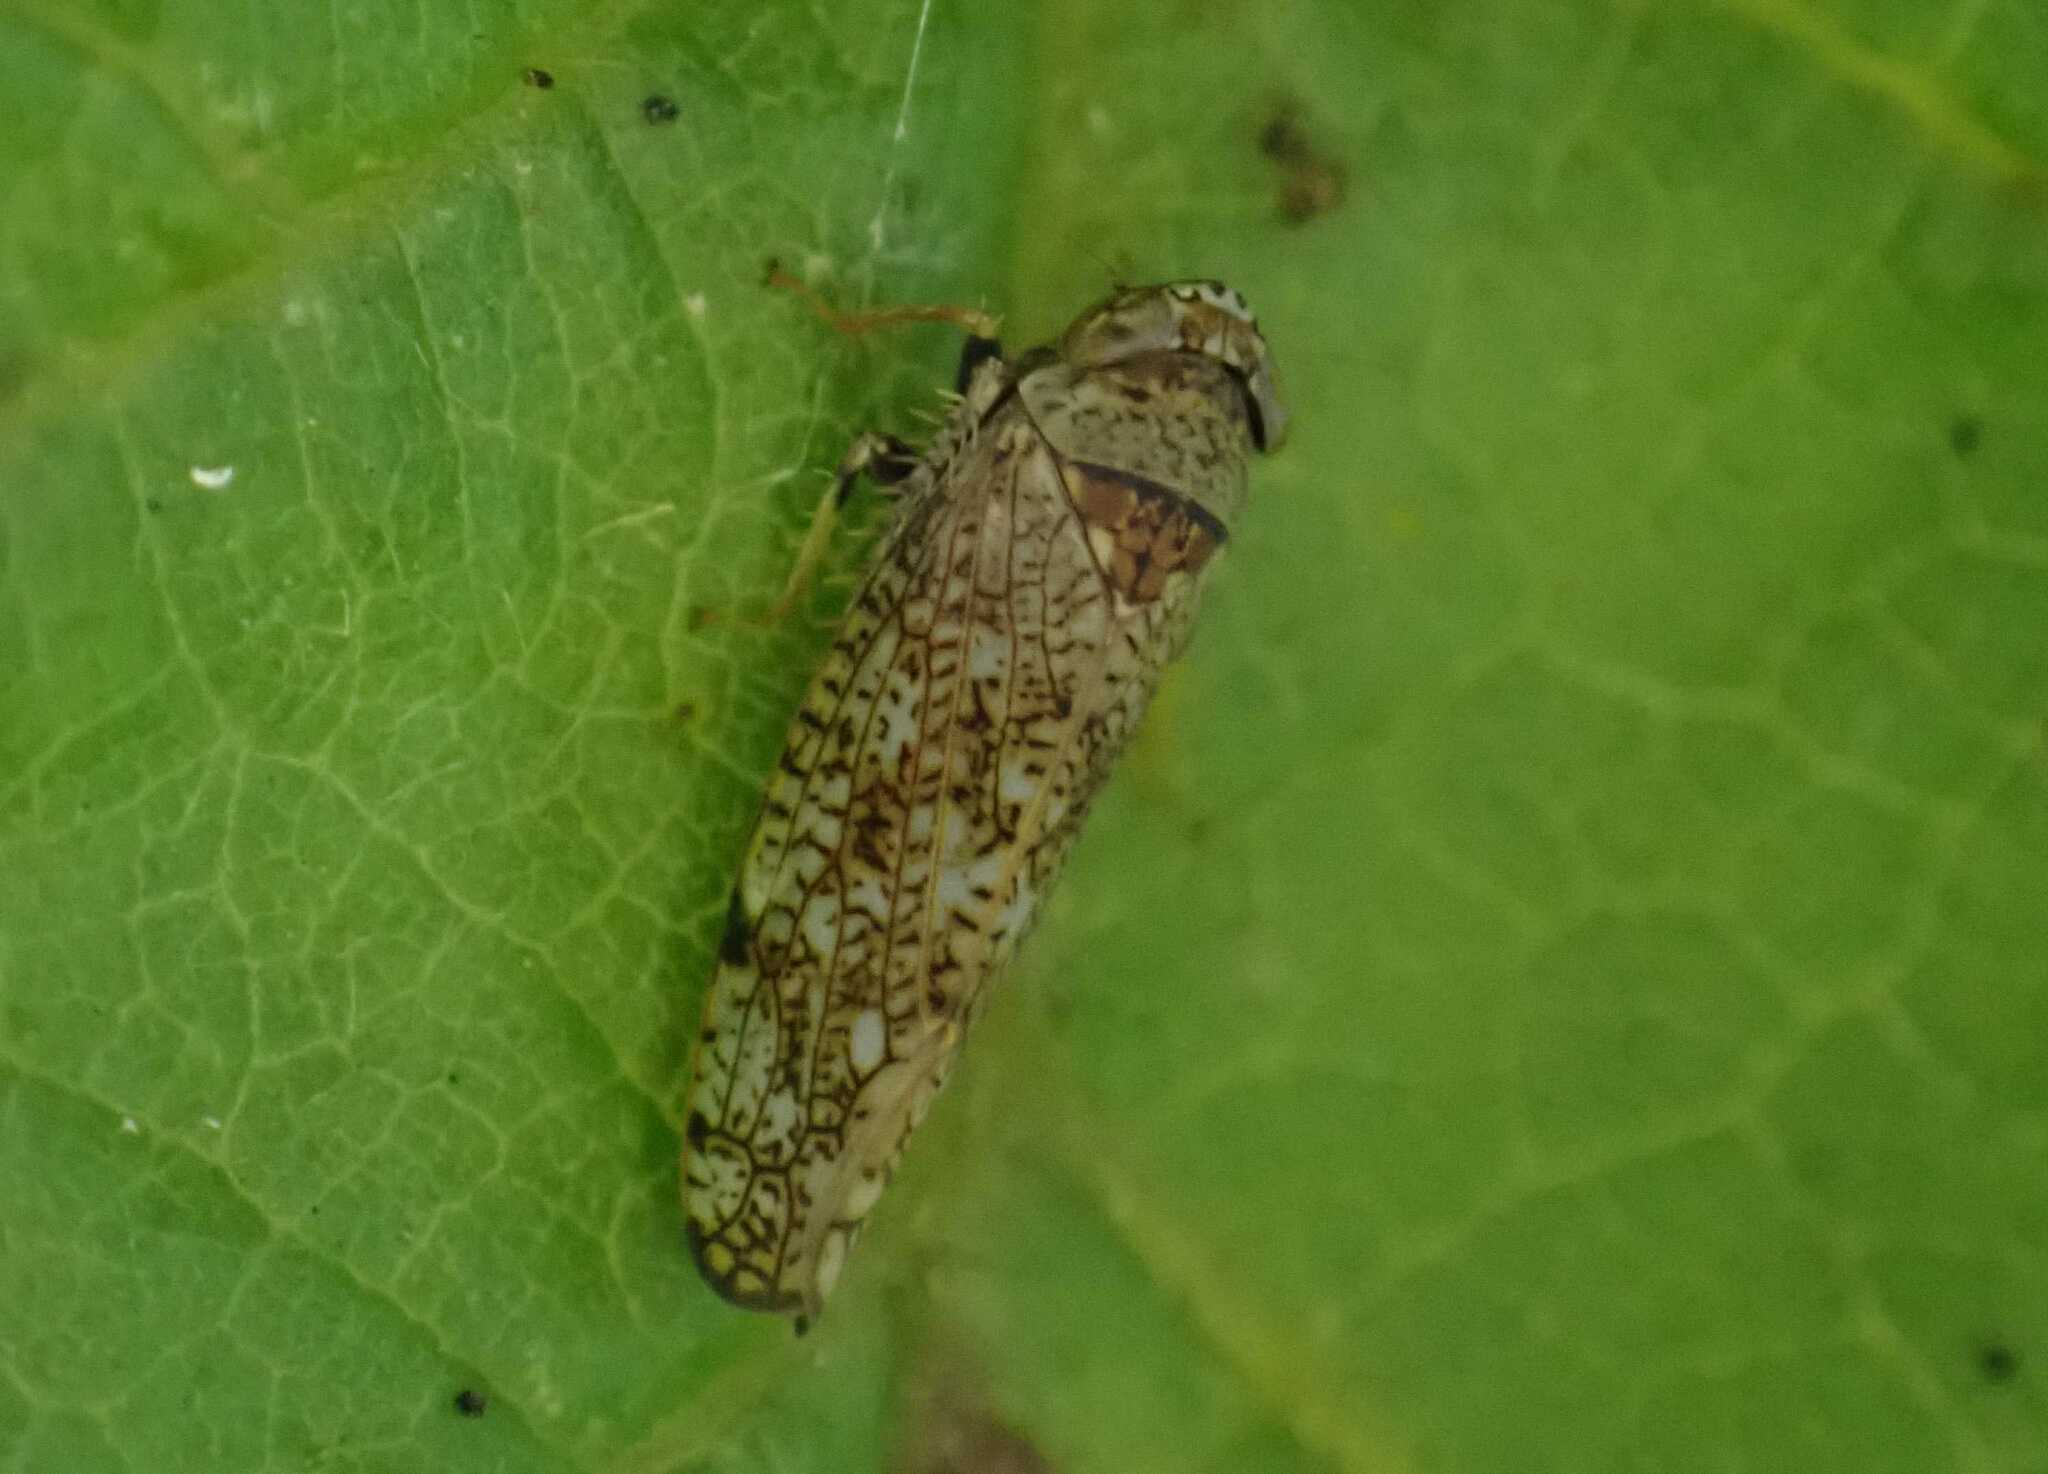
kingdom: Animalia
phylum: Arthropoda
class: Insecta
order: Hemiptera
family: Cicadellidae
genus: Orientus
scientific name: Orientus ishidae
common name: Japanese leafhopper
